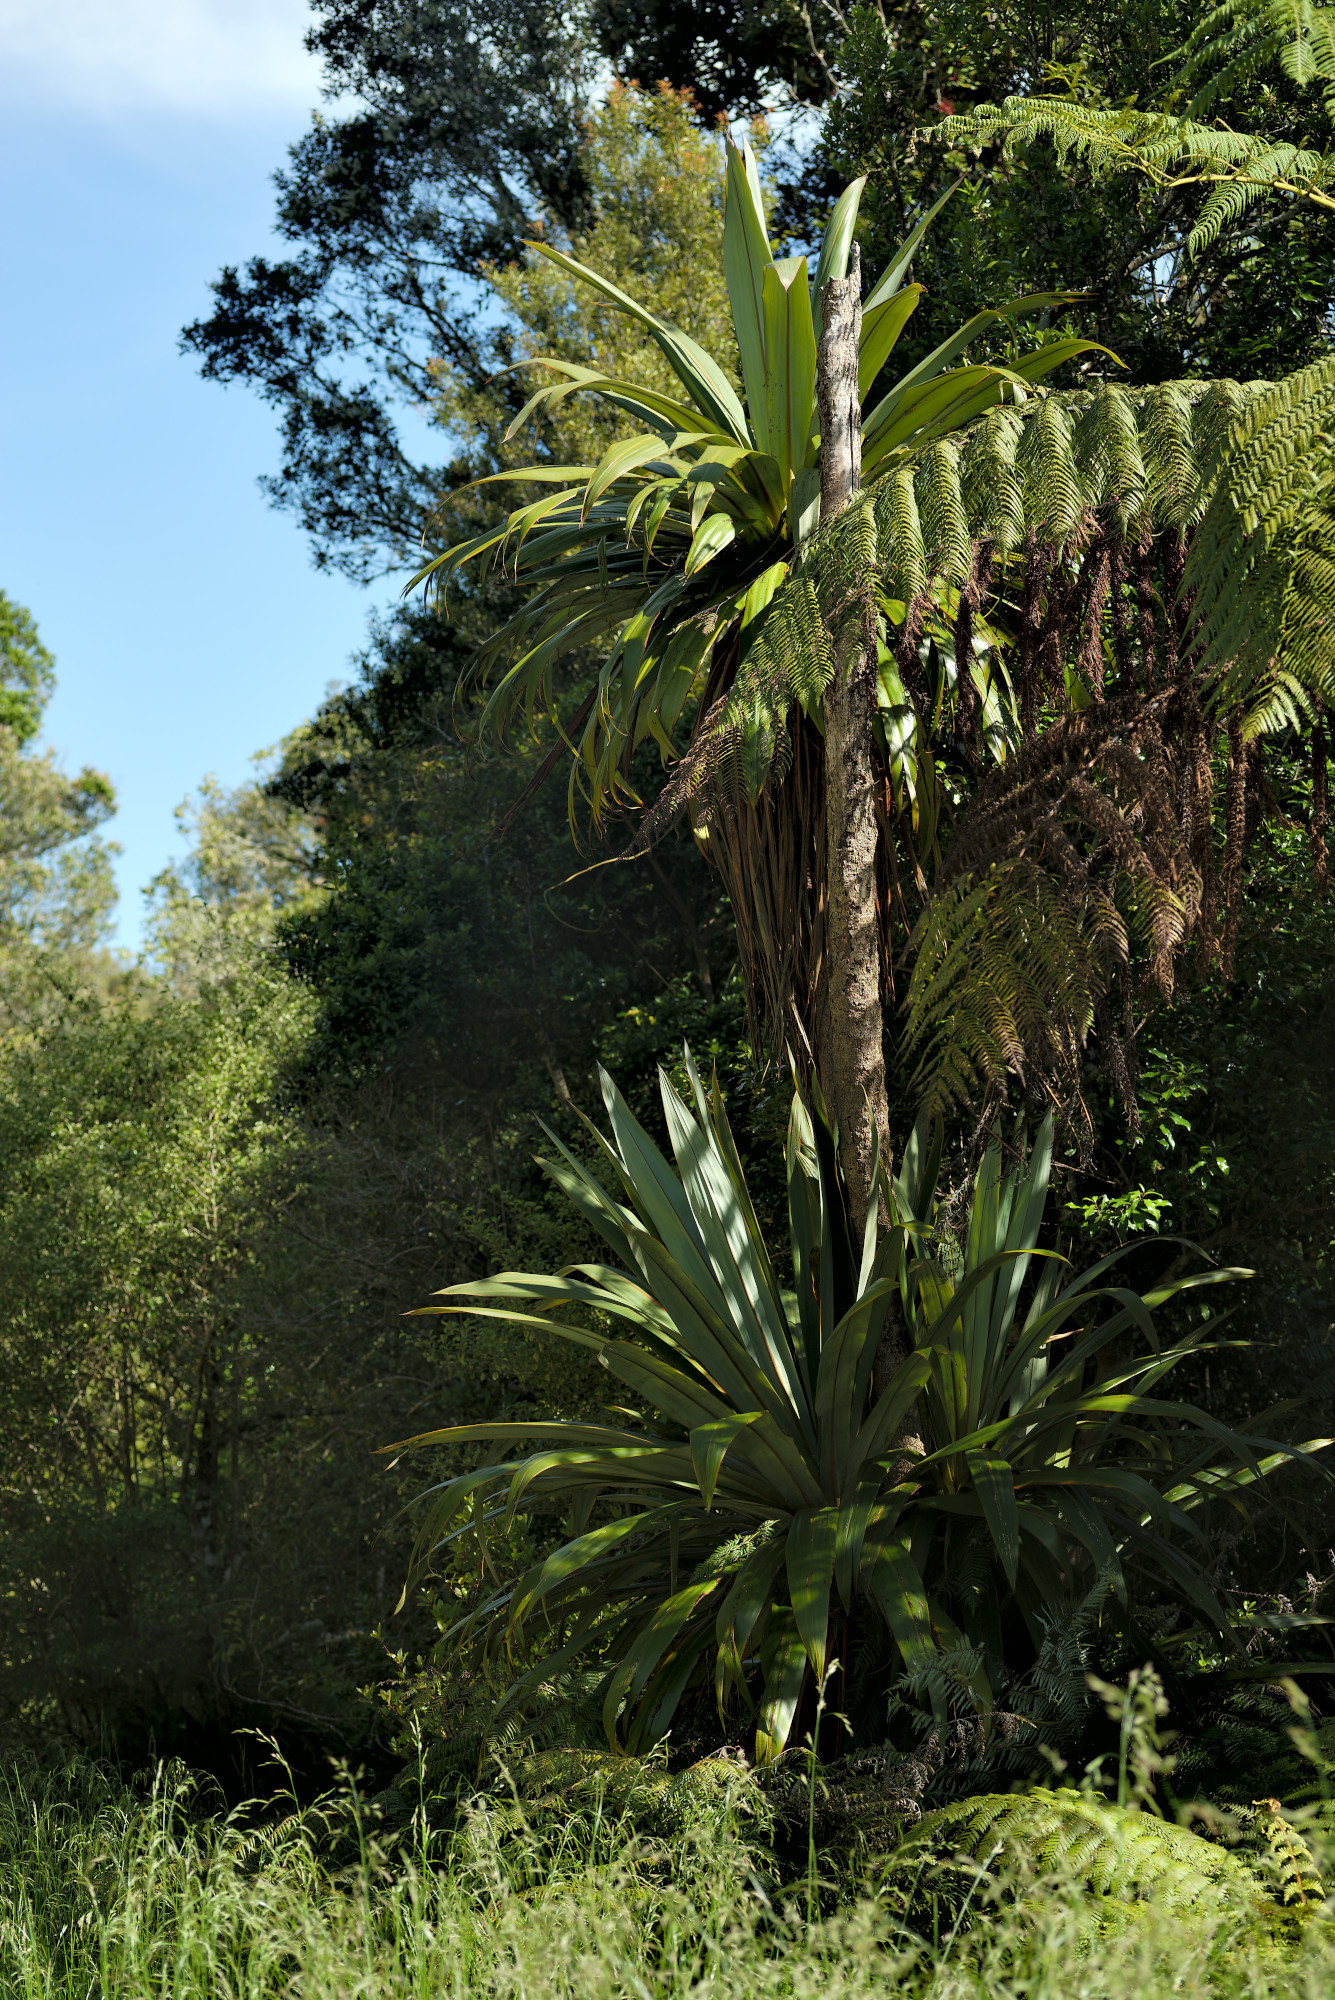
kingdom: Plantae
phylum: Tracheophyta
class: Liliopsida
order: Asparagales
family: Asparagaceae
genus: Cordyline
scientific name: Cordyline indivisa
